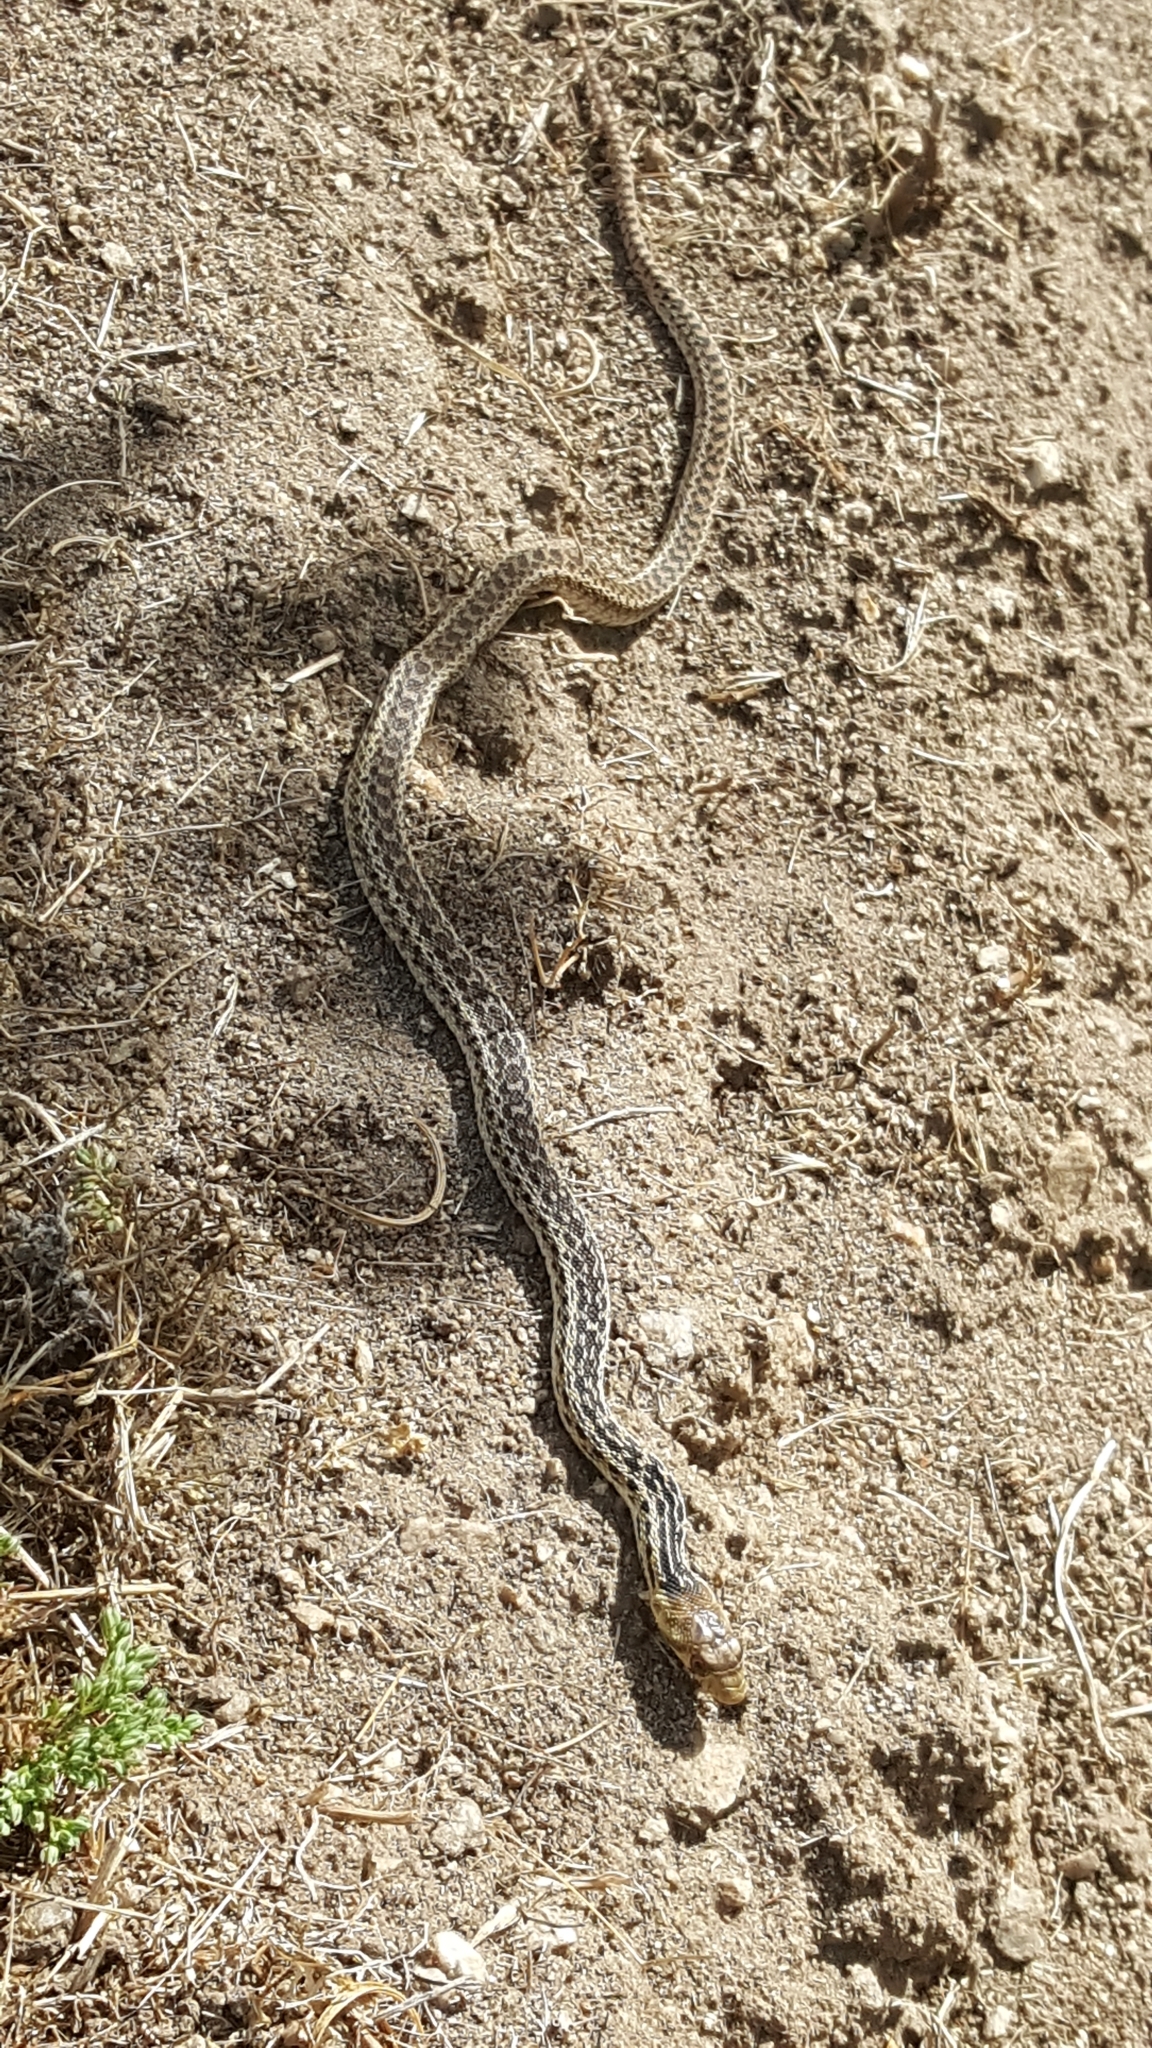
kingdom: Animalia
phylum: Chordata
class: Squamata
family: Colubridae
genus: Pituophis
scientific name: Pituophis catenifer
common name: Gopher snake
